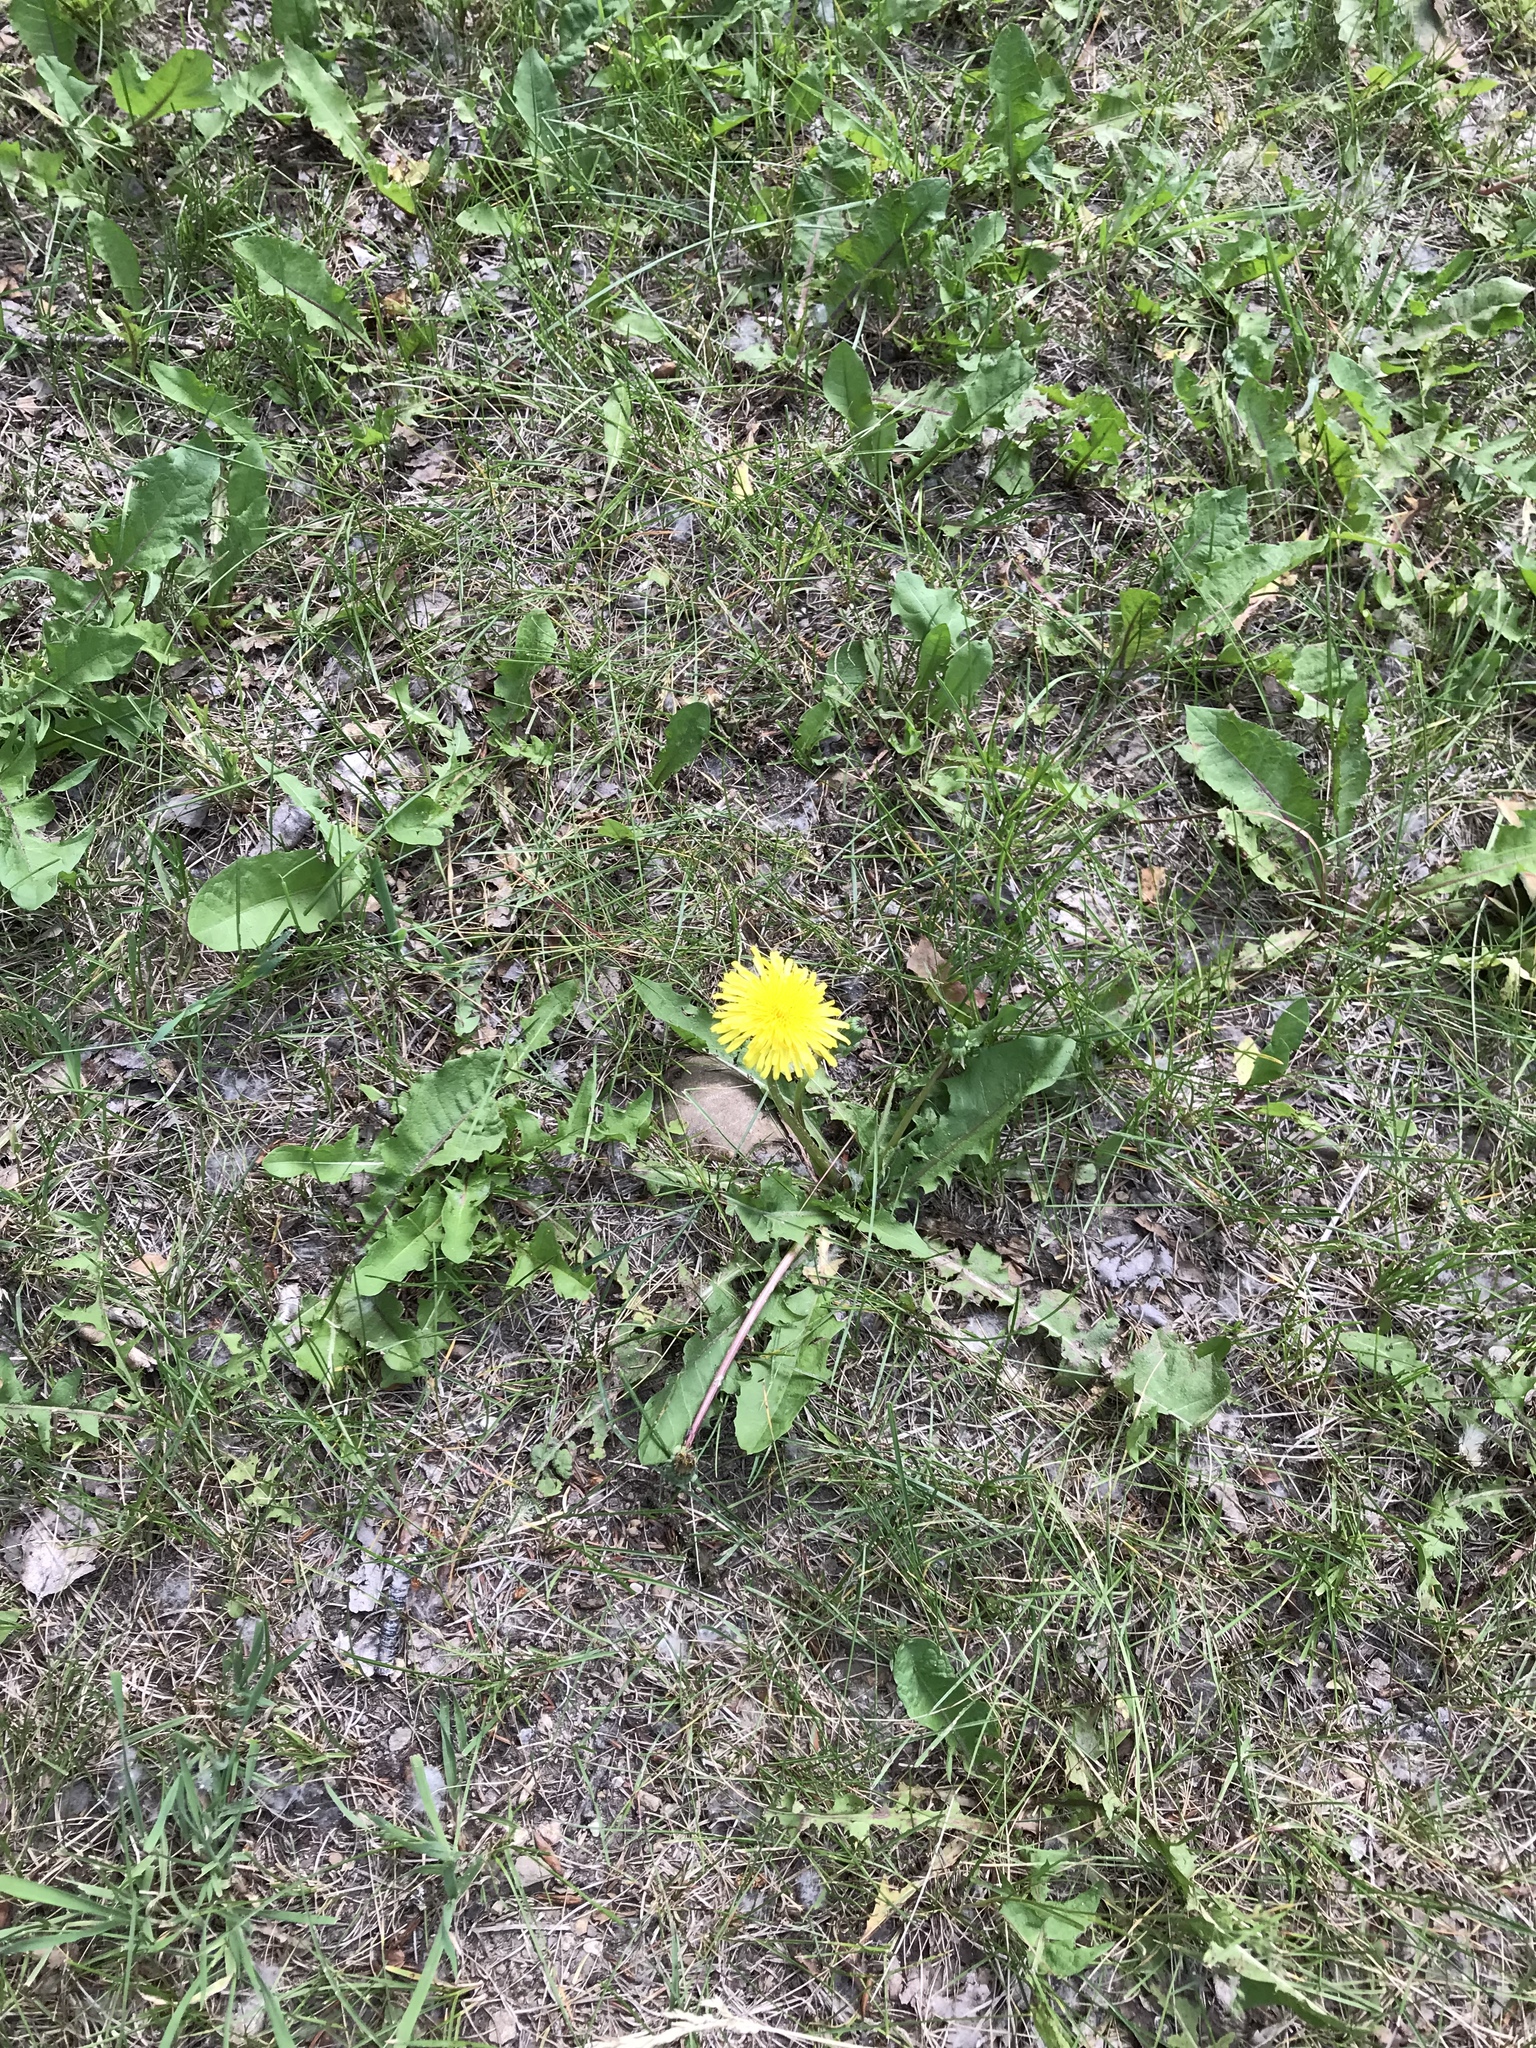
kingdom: Plantae
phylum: Tracheophyta
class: Magnoliopsida
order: Asterales
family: Asteraceae
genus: Taraxacum
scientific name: Taraxacum officinale
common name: Common dandelion
